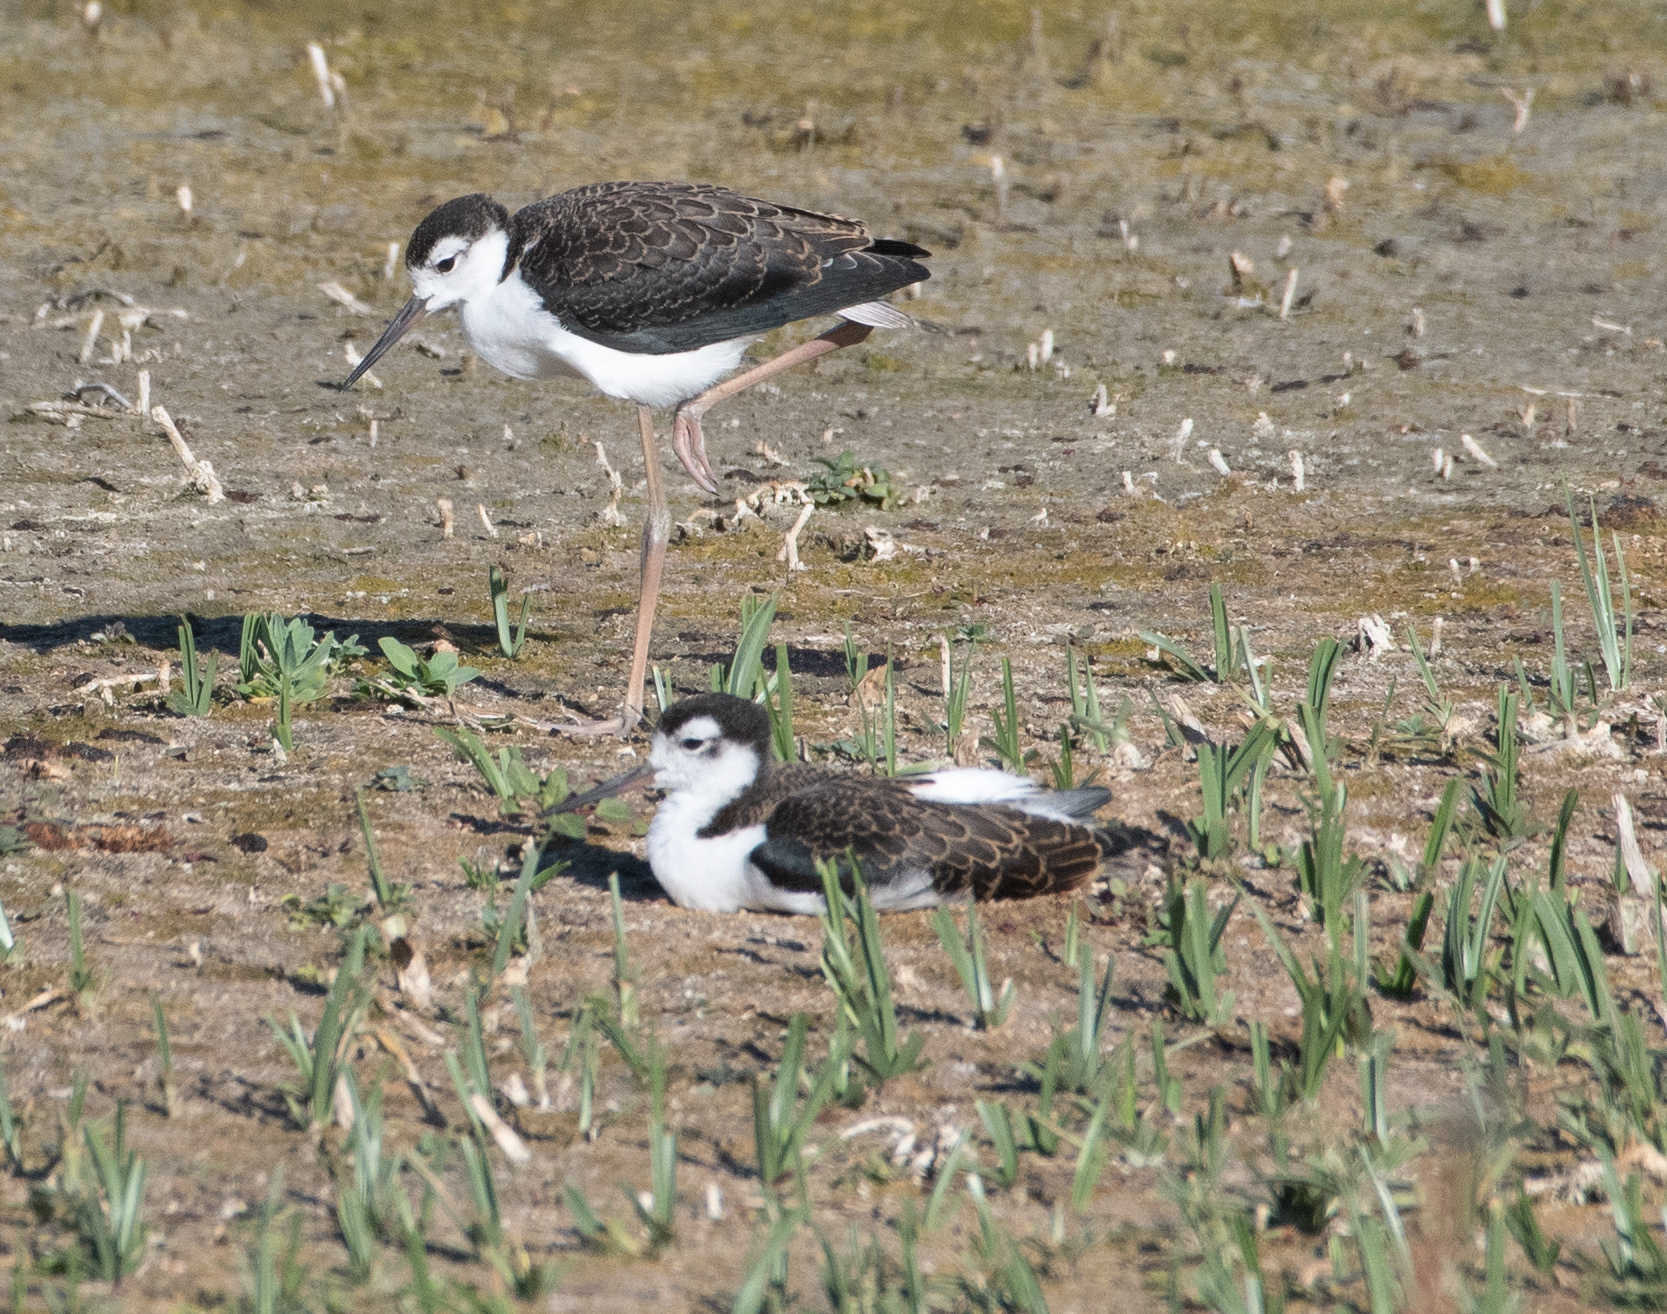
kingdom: Animalia
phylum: Chordata
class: Aves
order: Charadriiformes
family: Recurvirostridae
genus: Himantopus
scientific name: Himantopus mexicanus
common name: Black-necked stilt
